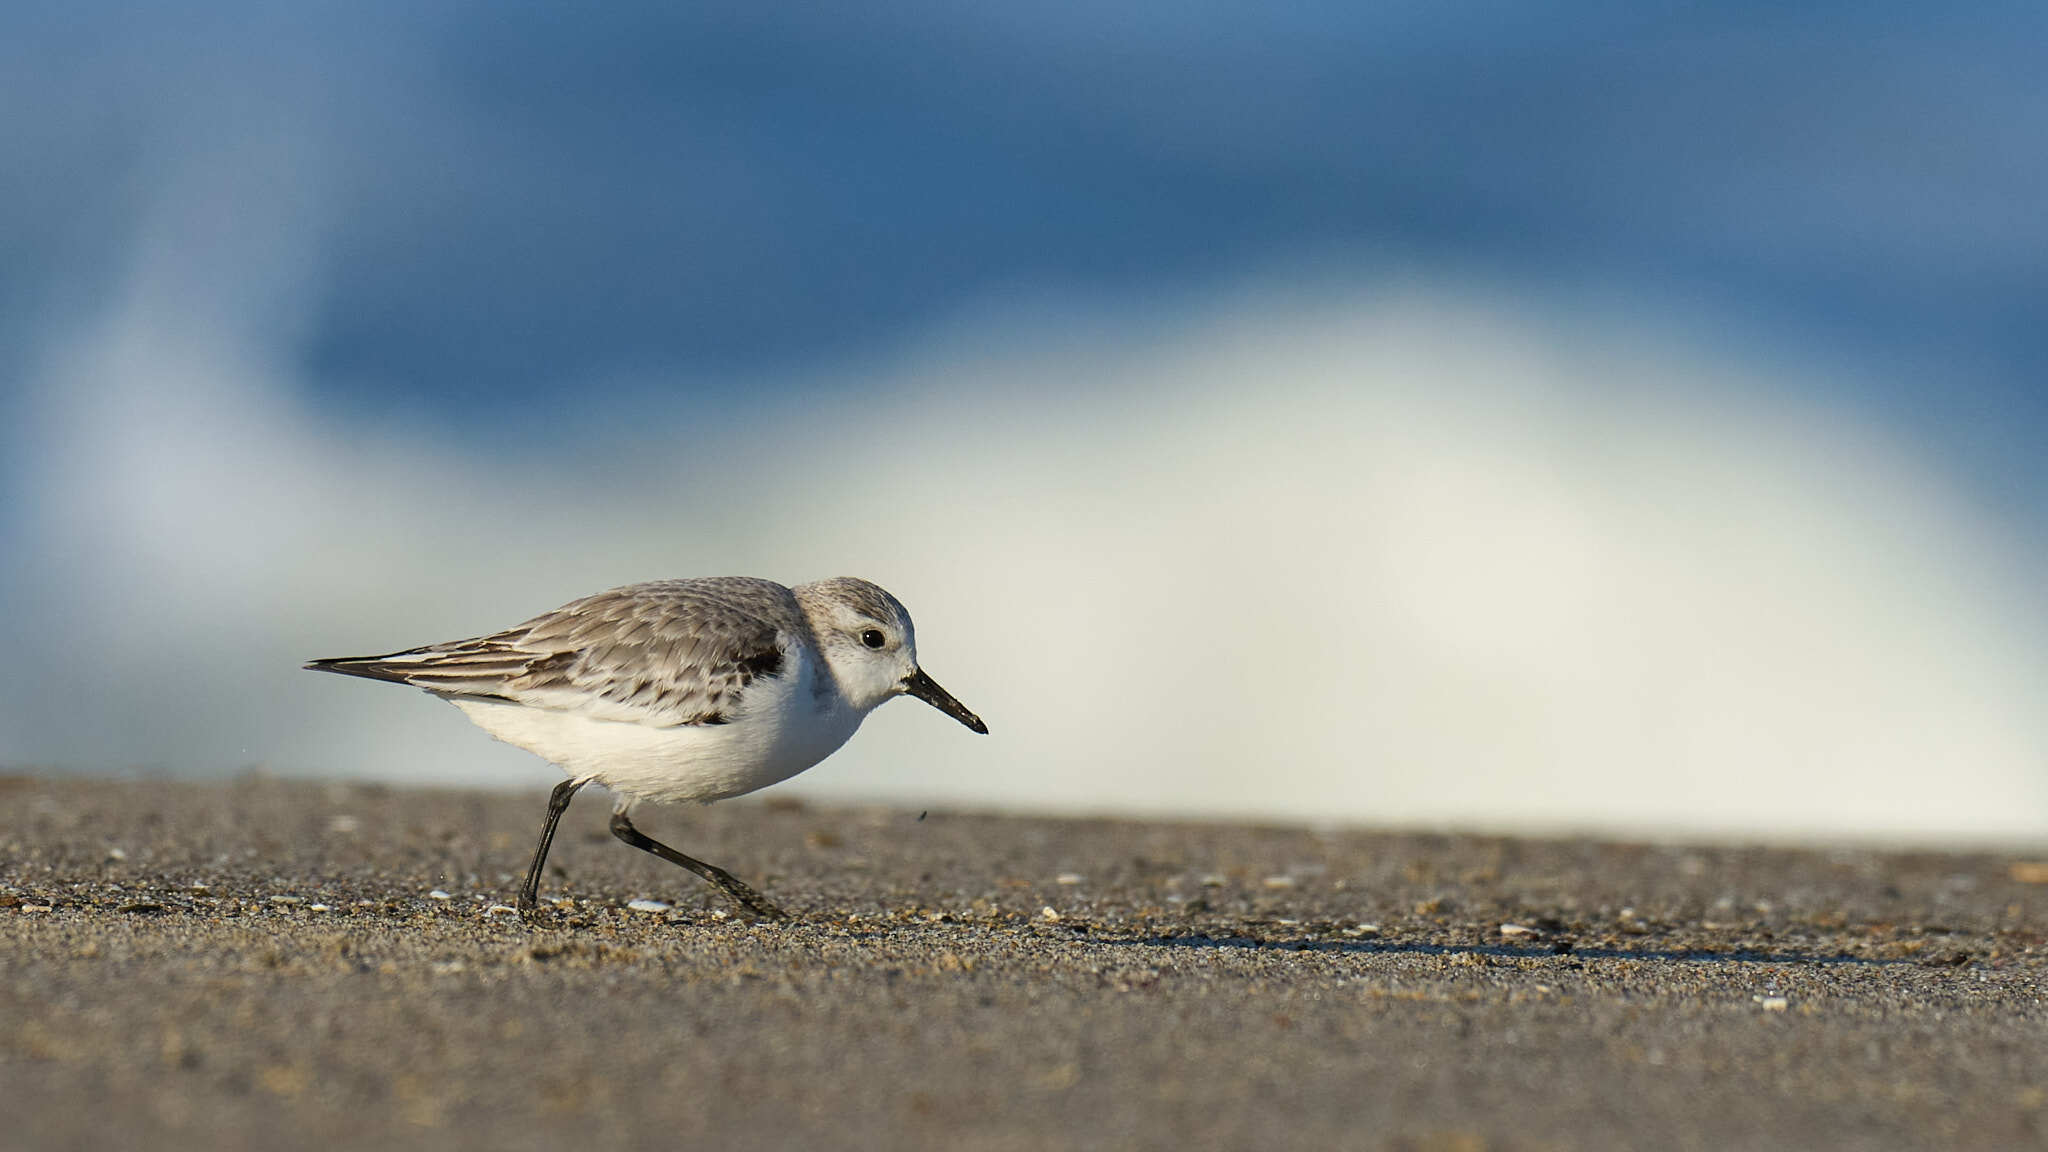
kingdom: Animalia
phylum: Chordata
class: Aves
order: Charadriiformes
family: Scolopacidae
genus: Calidris
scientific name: Calidris alba
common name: Sanderling
